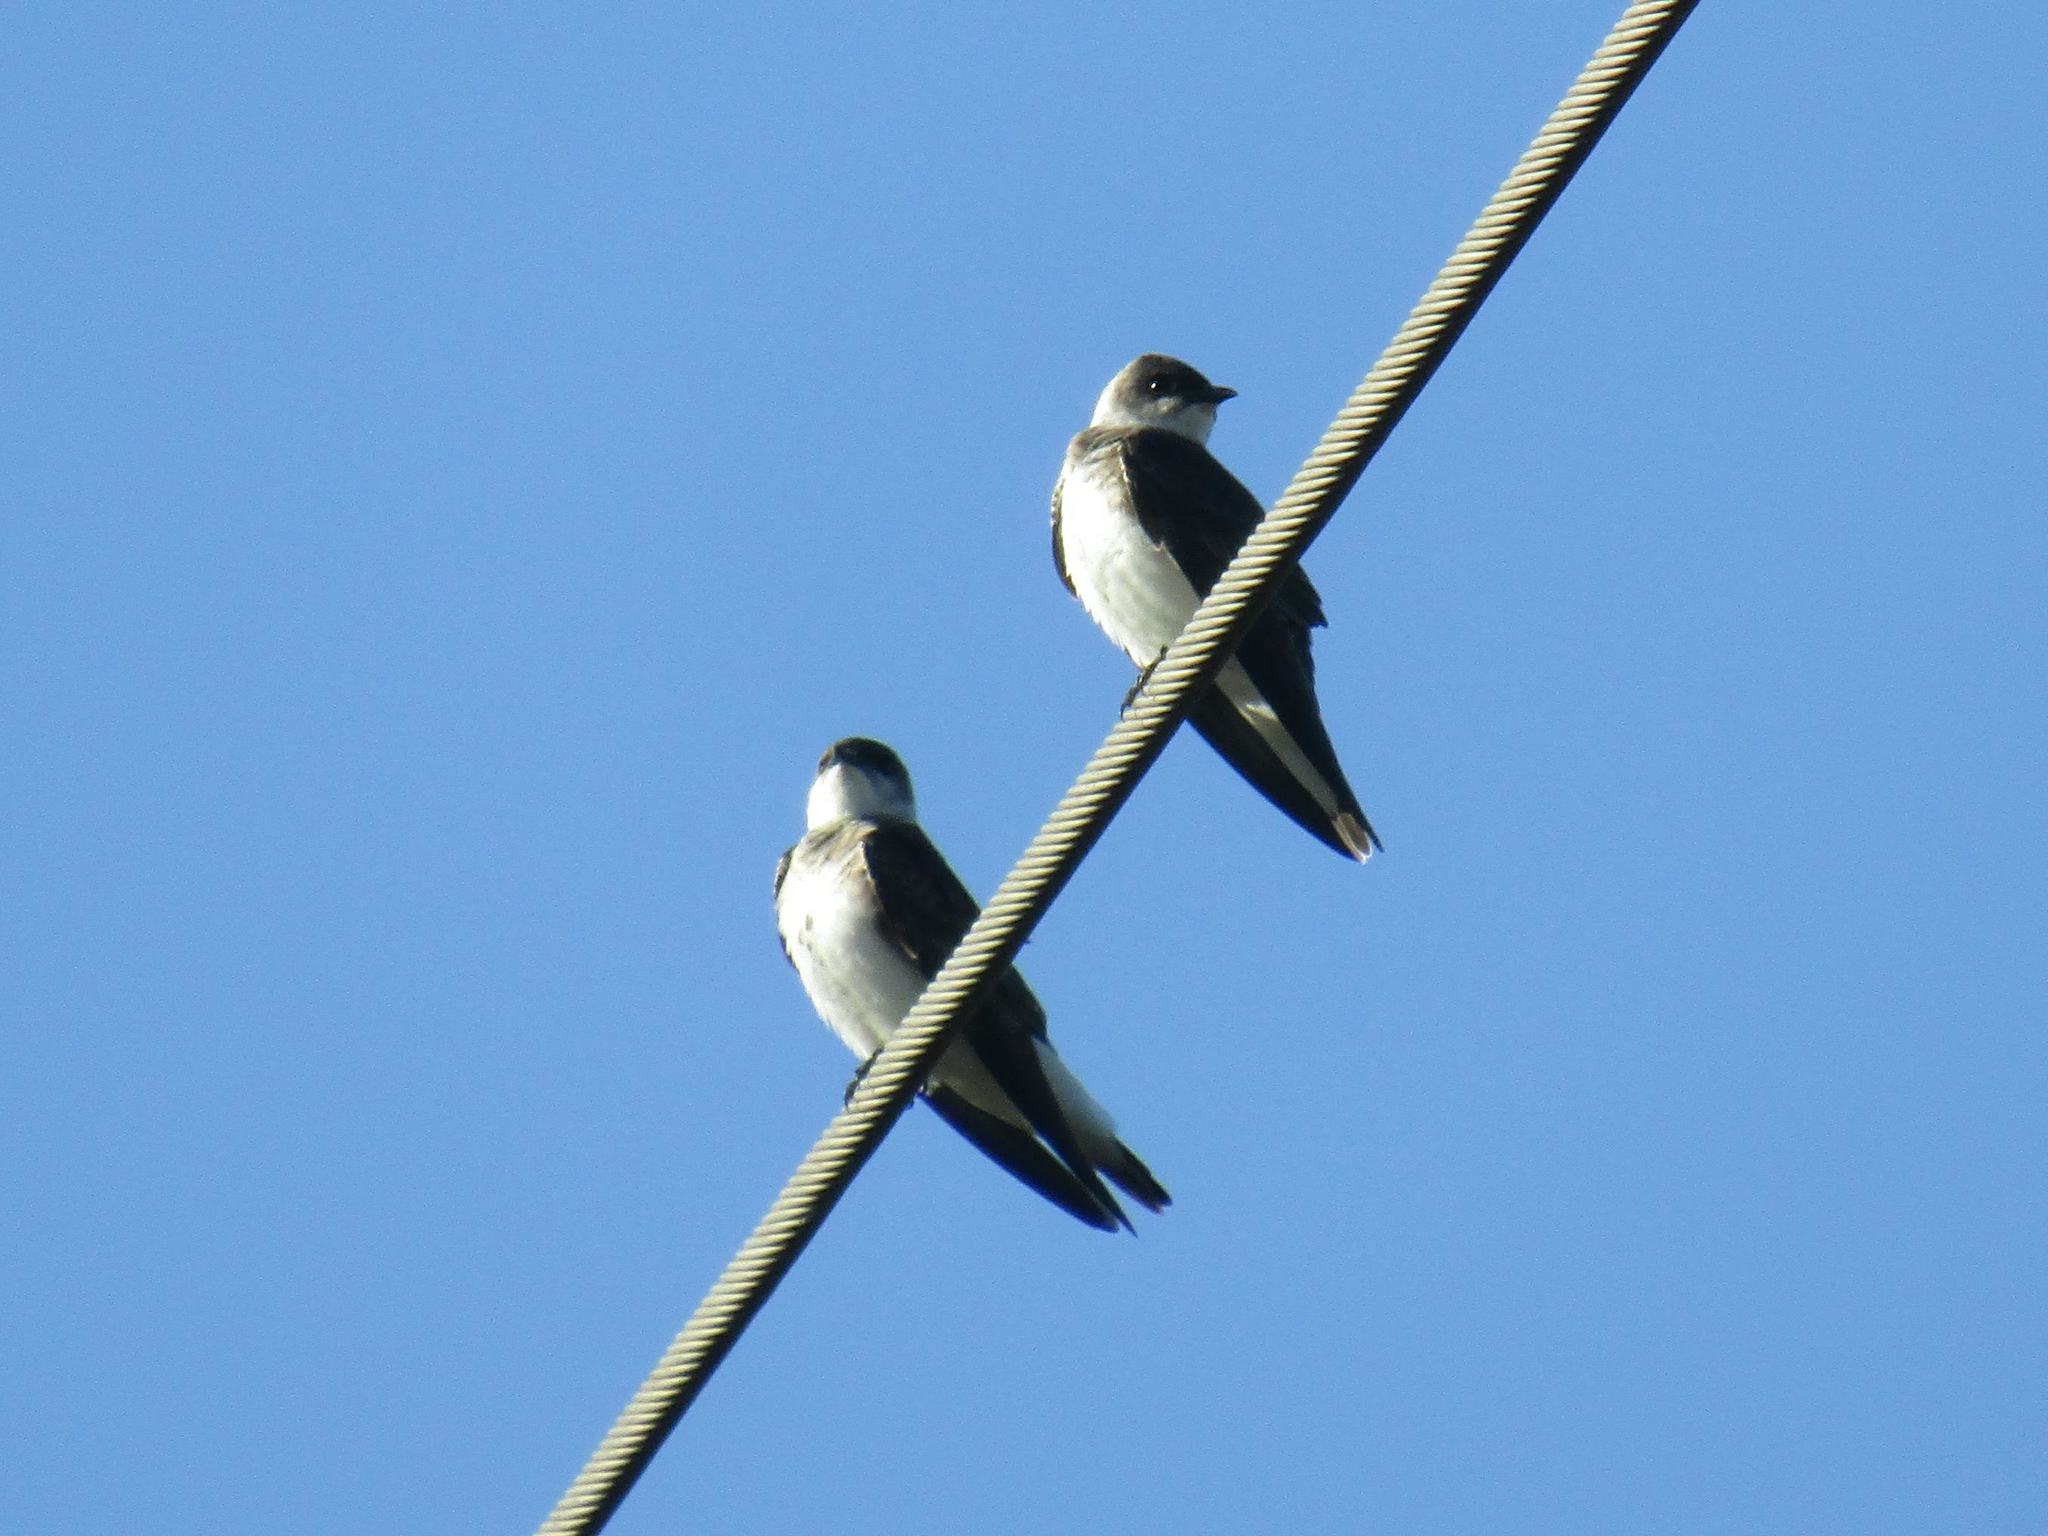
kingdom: Animalia
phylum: Chordata
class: Aves
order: Passeriformes
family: Hirundinidae
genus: Progne
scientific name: Progne tapera
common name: Brown-chested martin
